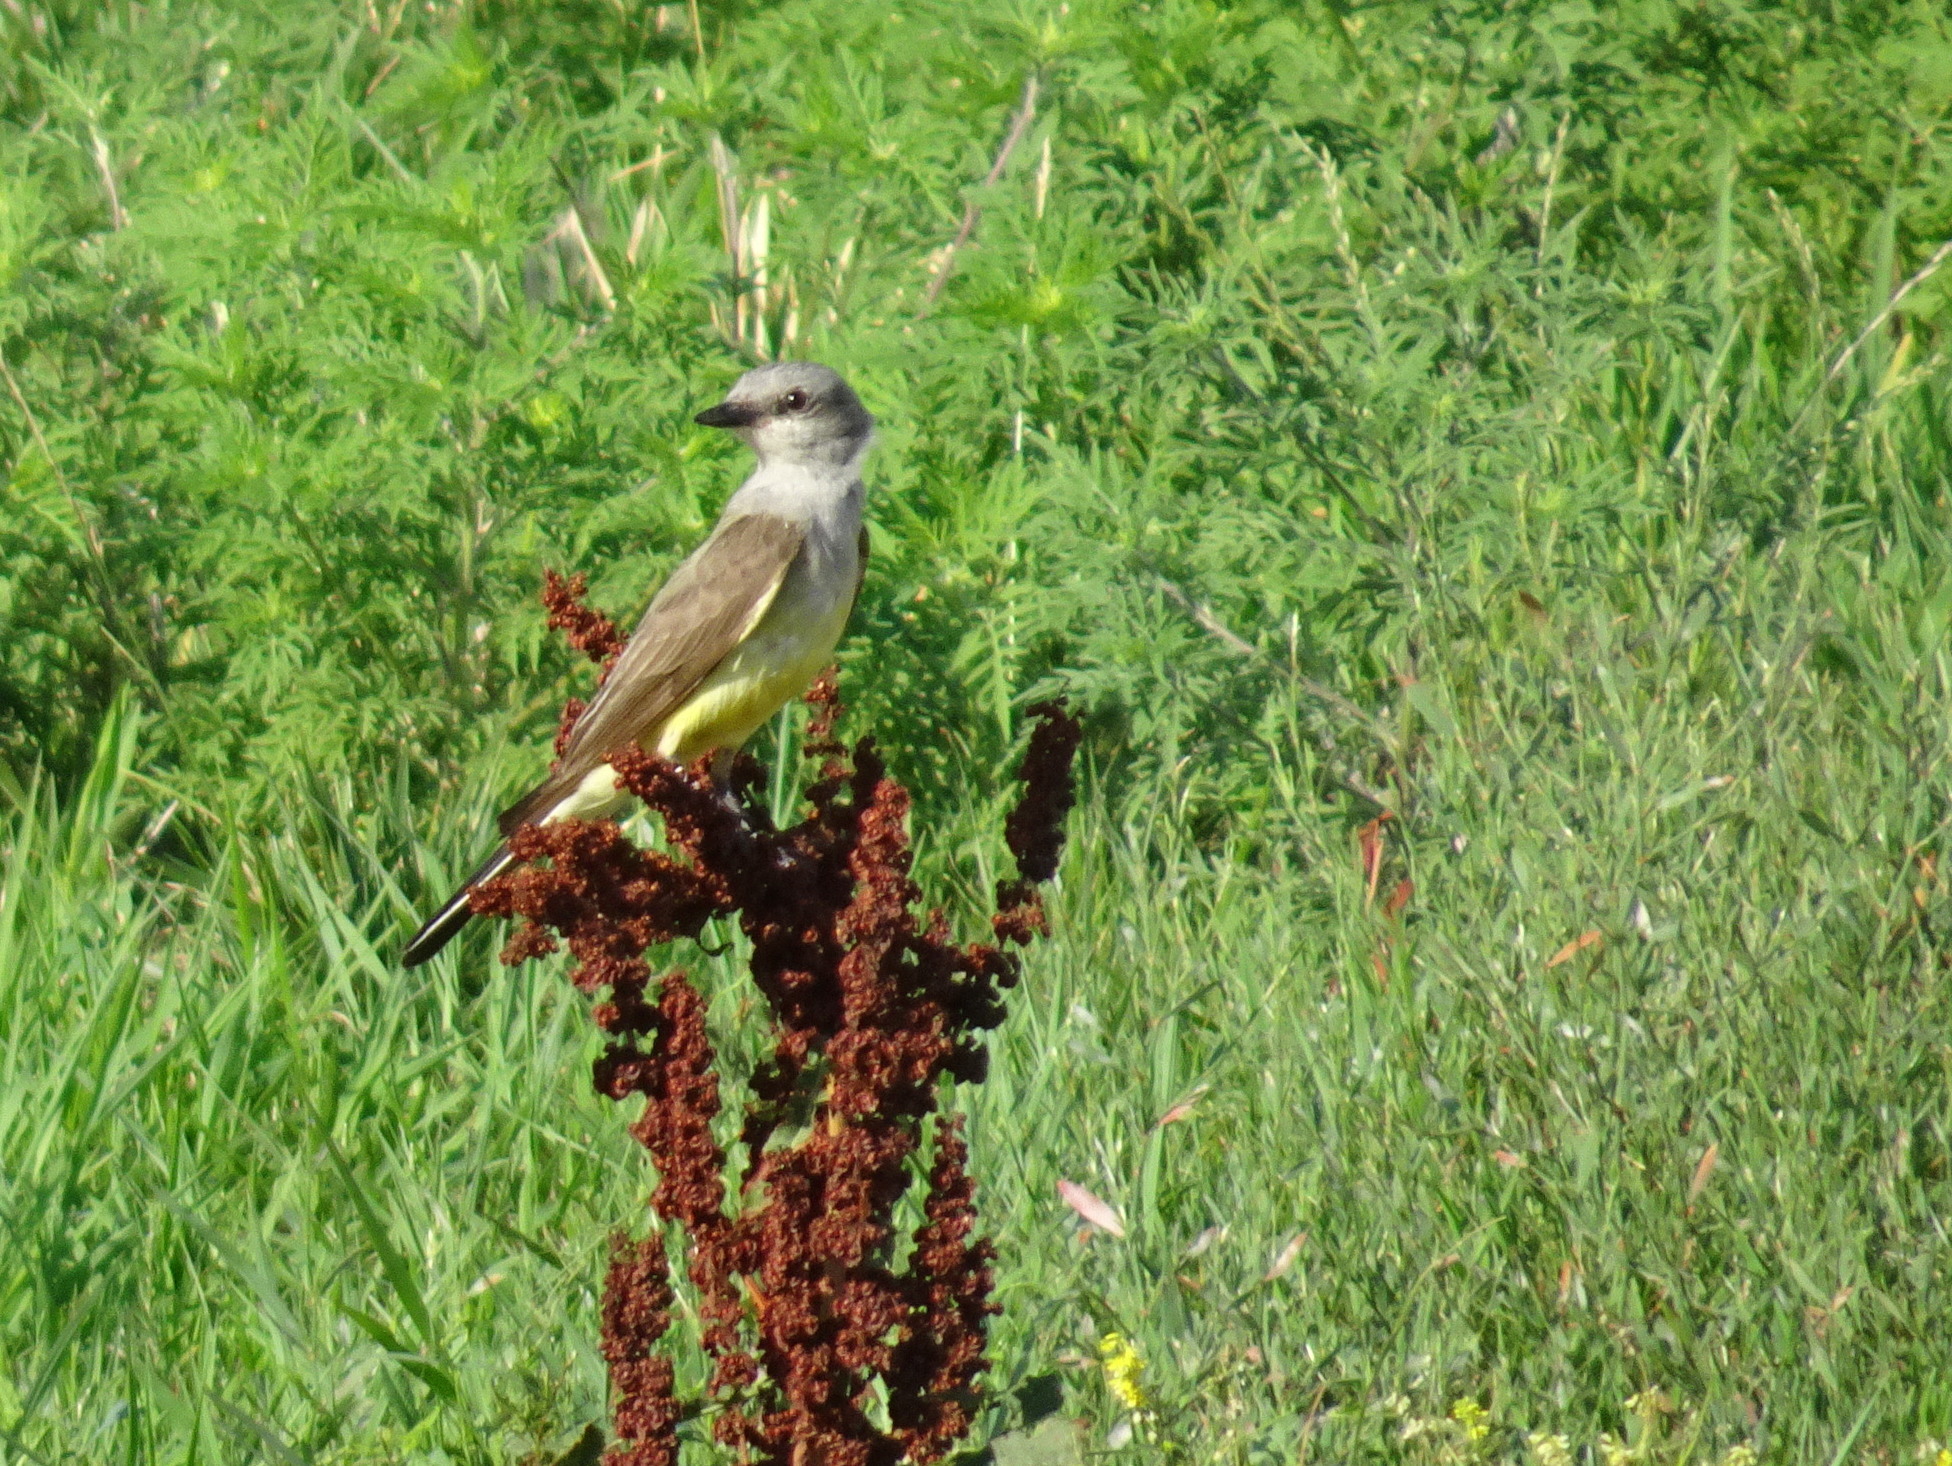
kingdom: Animalia
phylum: Chordata
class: Aves
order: Passeriformes
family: Tyrannidae
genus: Tyrannus
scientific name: Tyrannus verticalis
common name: Western kingbird
